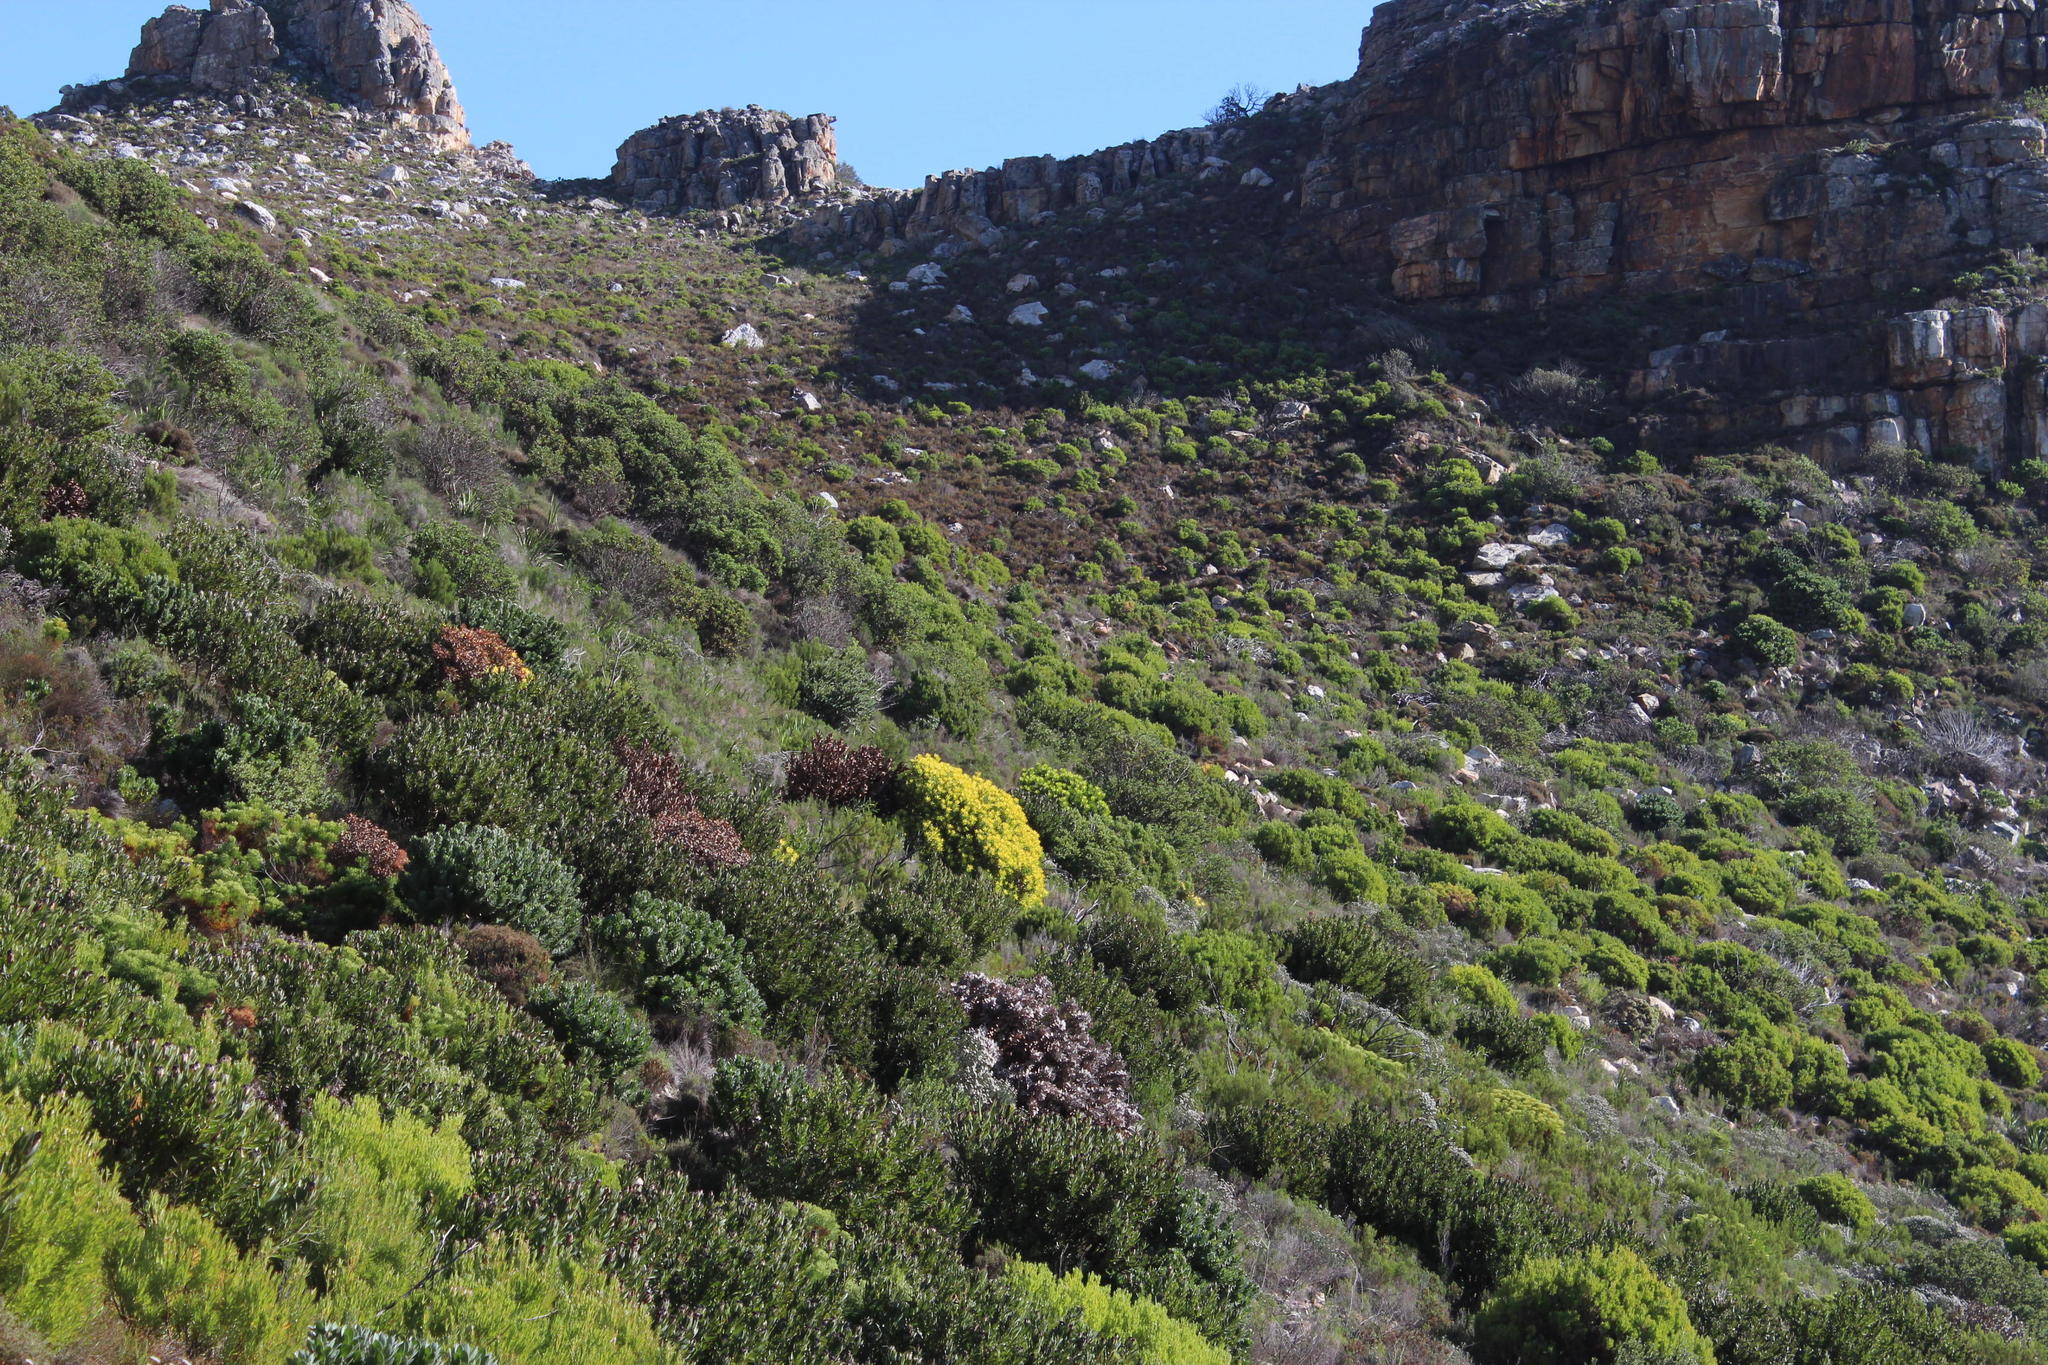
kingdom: Plantae
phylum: Tracheophyta
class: Magnoliopsida
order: Proteales
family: Proteaceae
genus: Leucadendron
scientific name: Leucadendron laureolum
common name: Golden sunshinebush
